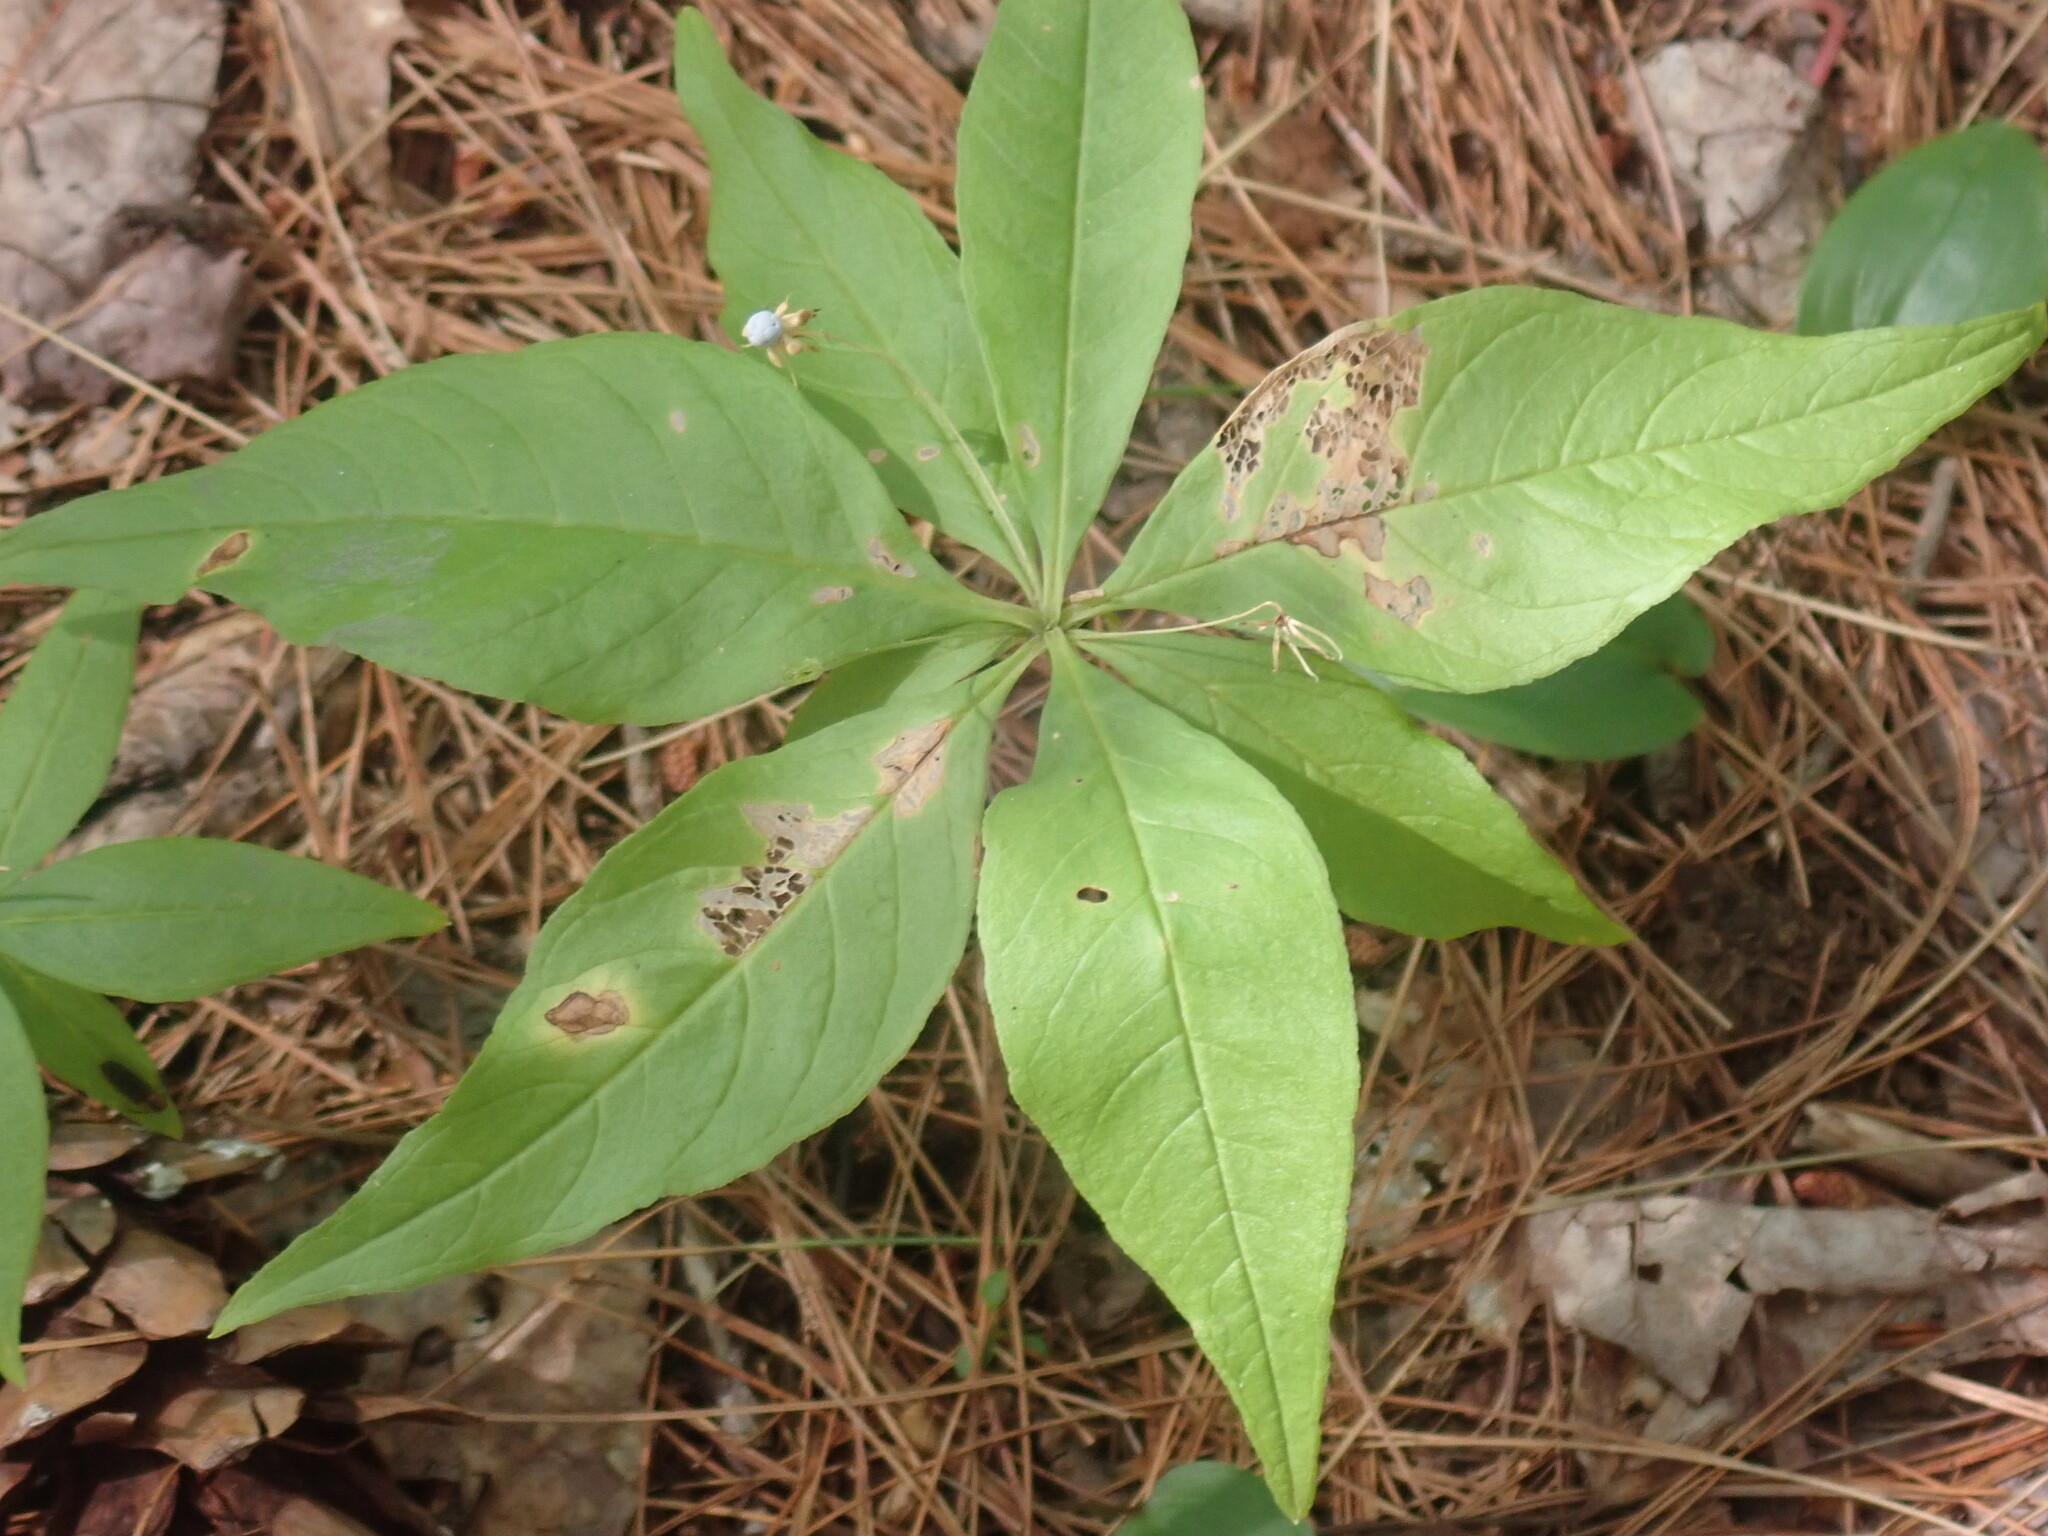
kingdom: Plantae
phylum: Tracheophyta
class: Magnoliopsida
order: Ericales
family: Primulaceae
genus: Lysimachia
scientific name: Lysimachia borealis
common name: American starflower
